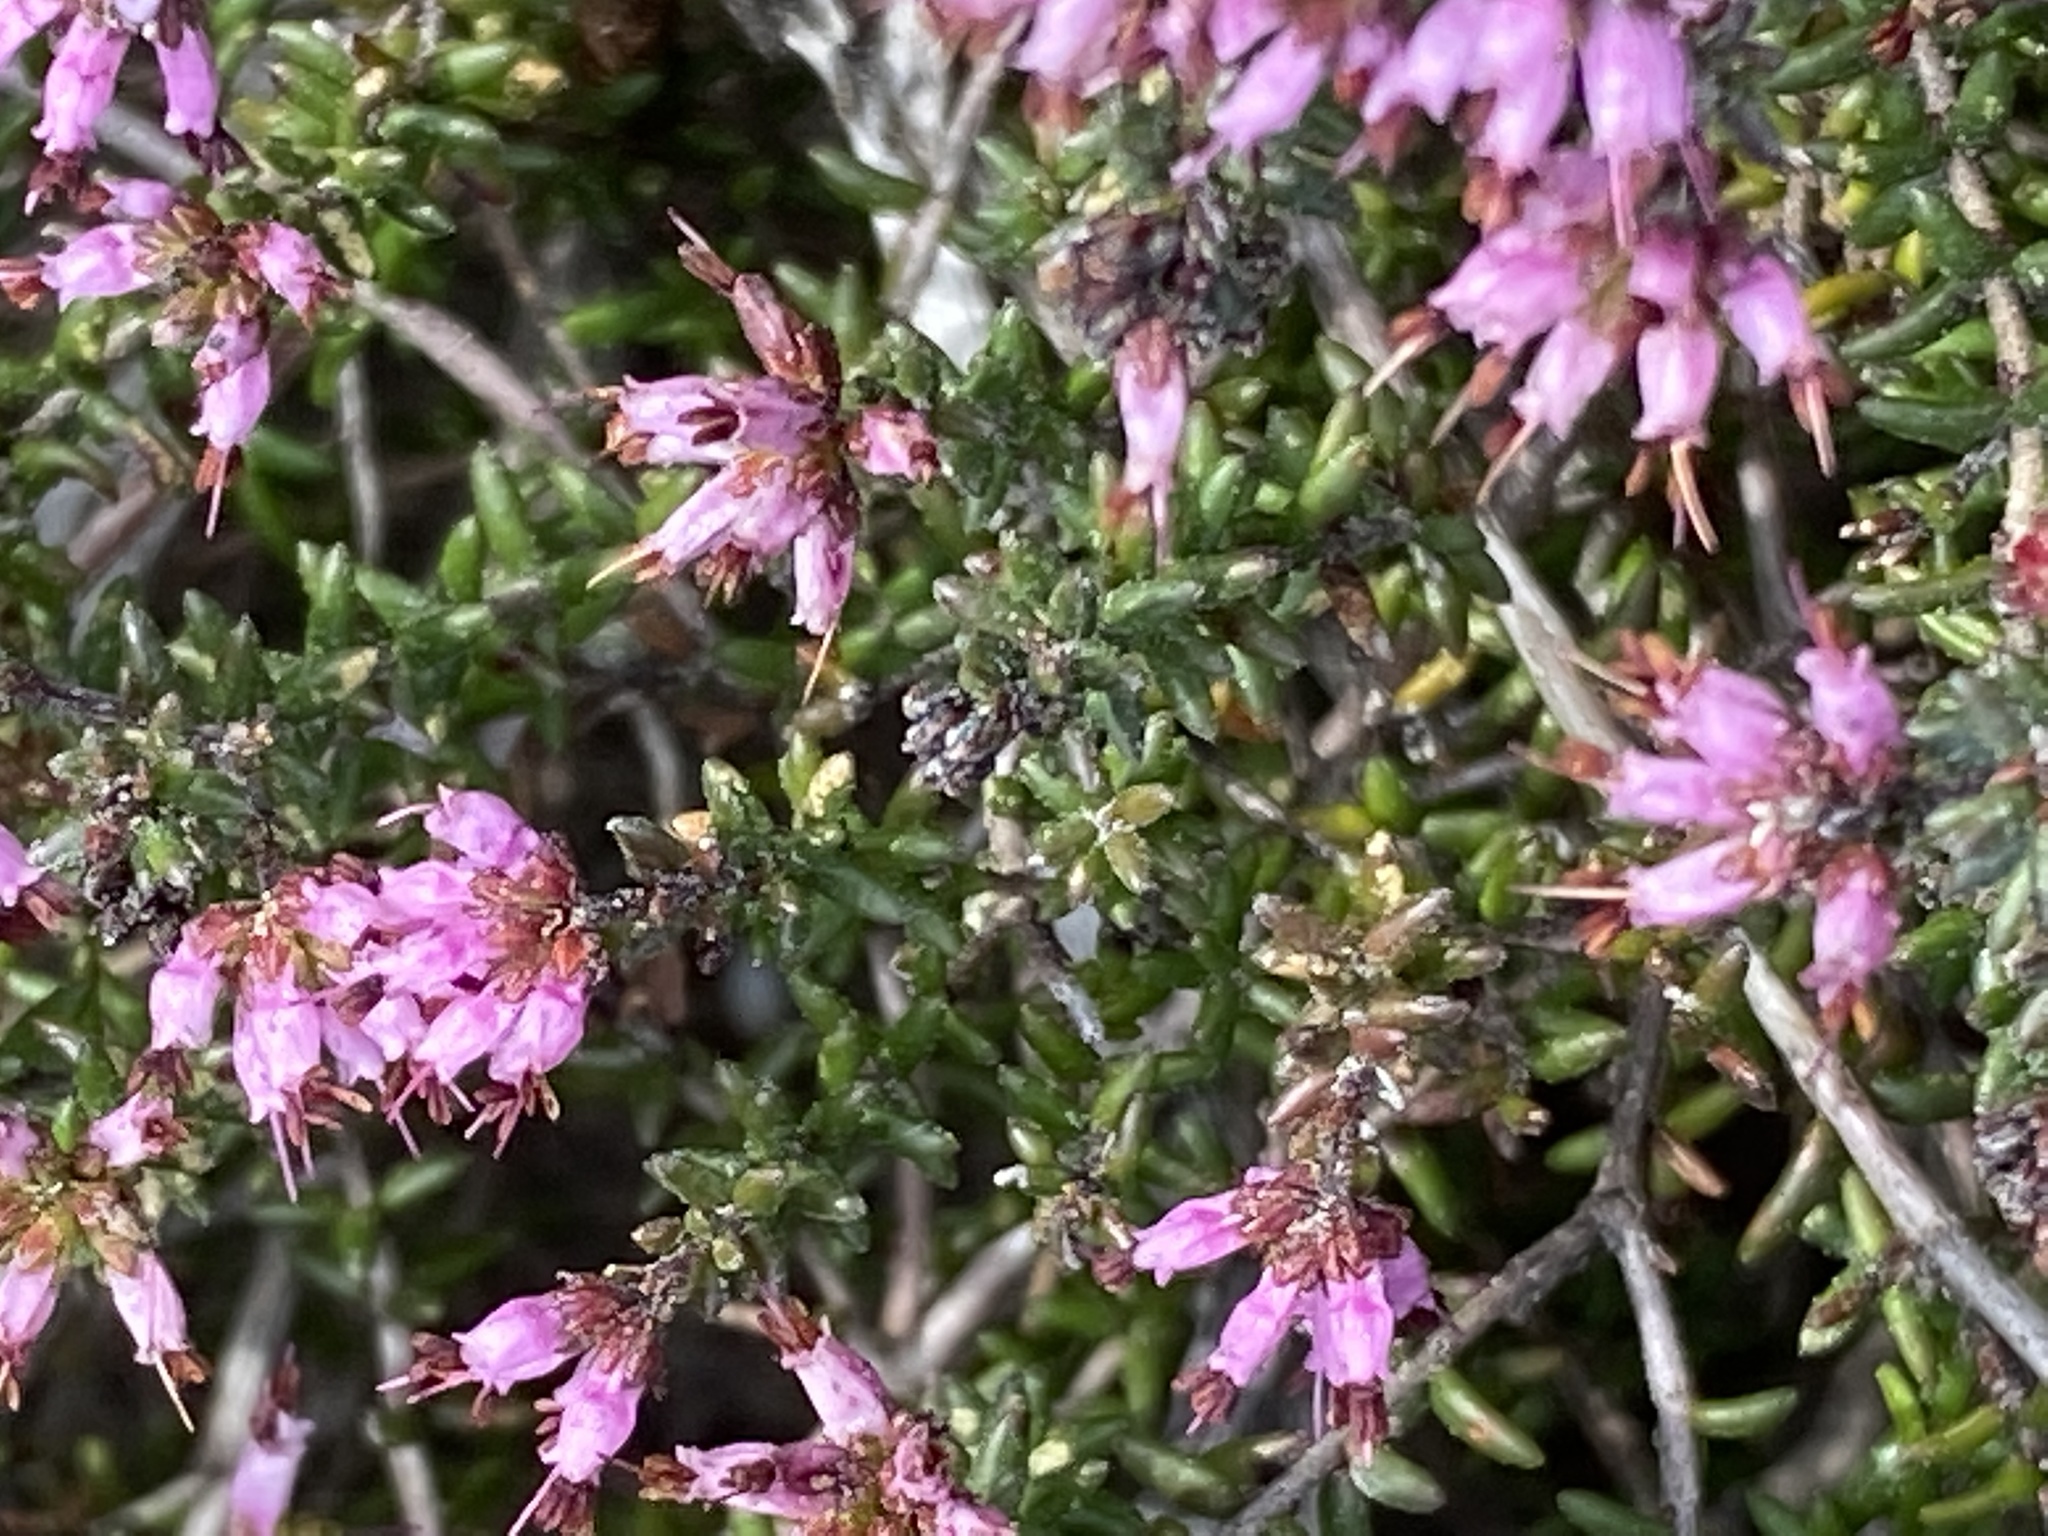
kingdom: Plantae
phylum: Tracheophyta
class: Magnoliopsida
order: Ericales
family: Ericaceae
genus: Erica
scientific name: Erica dispar
